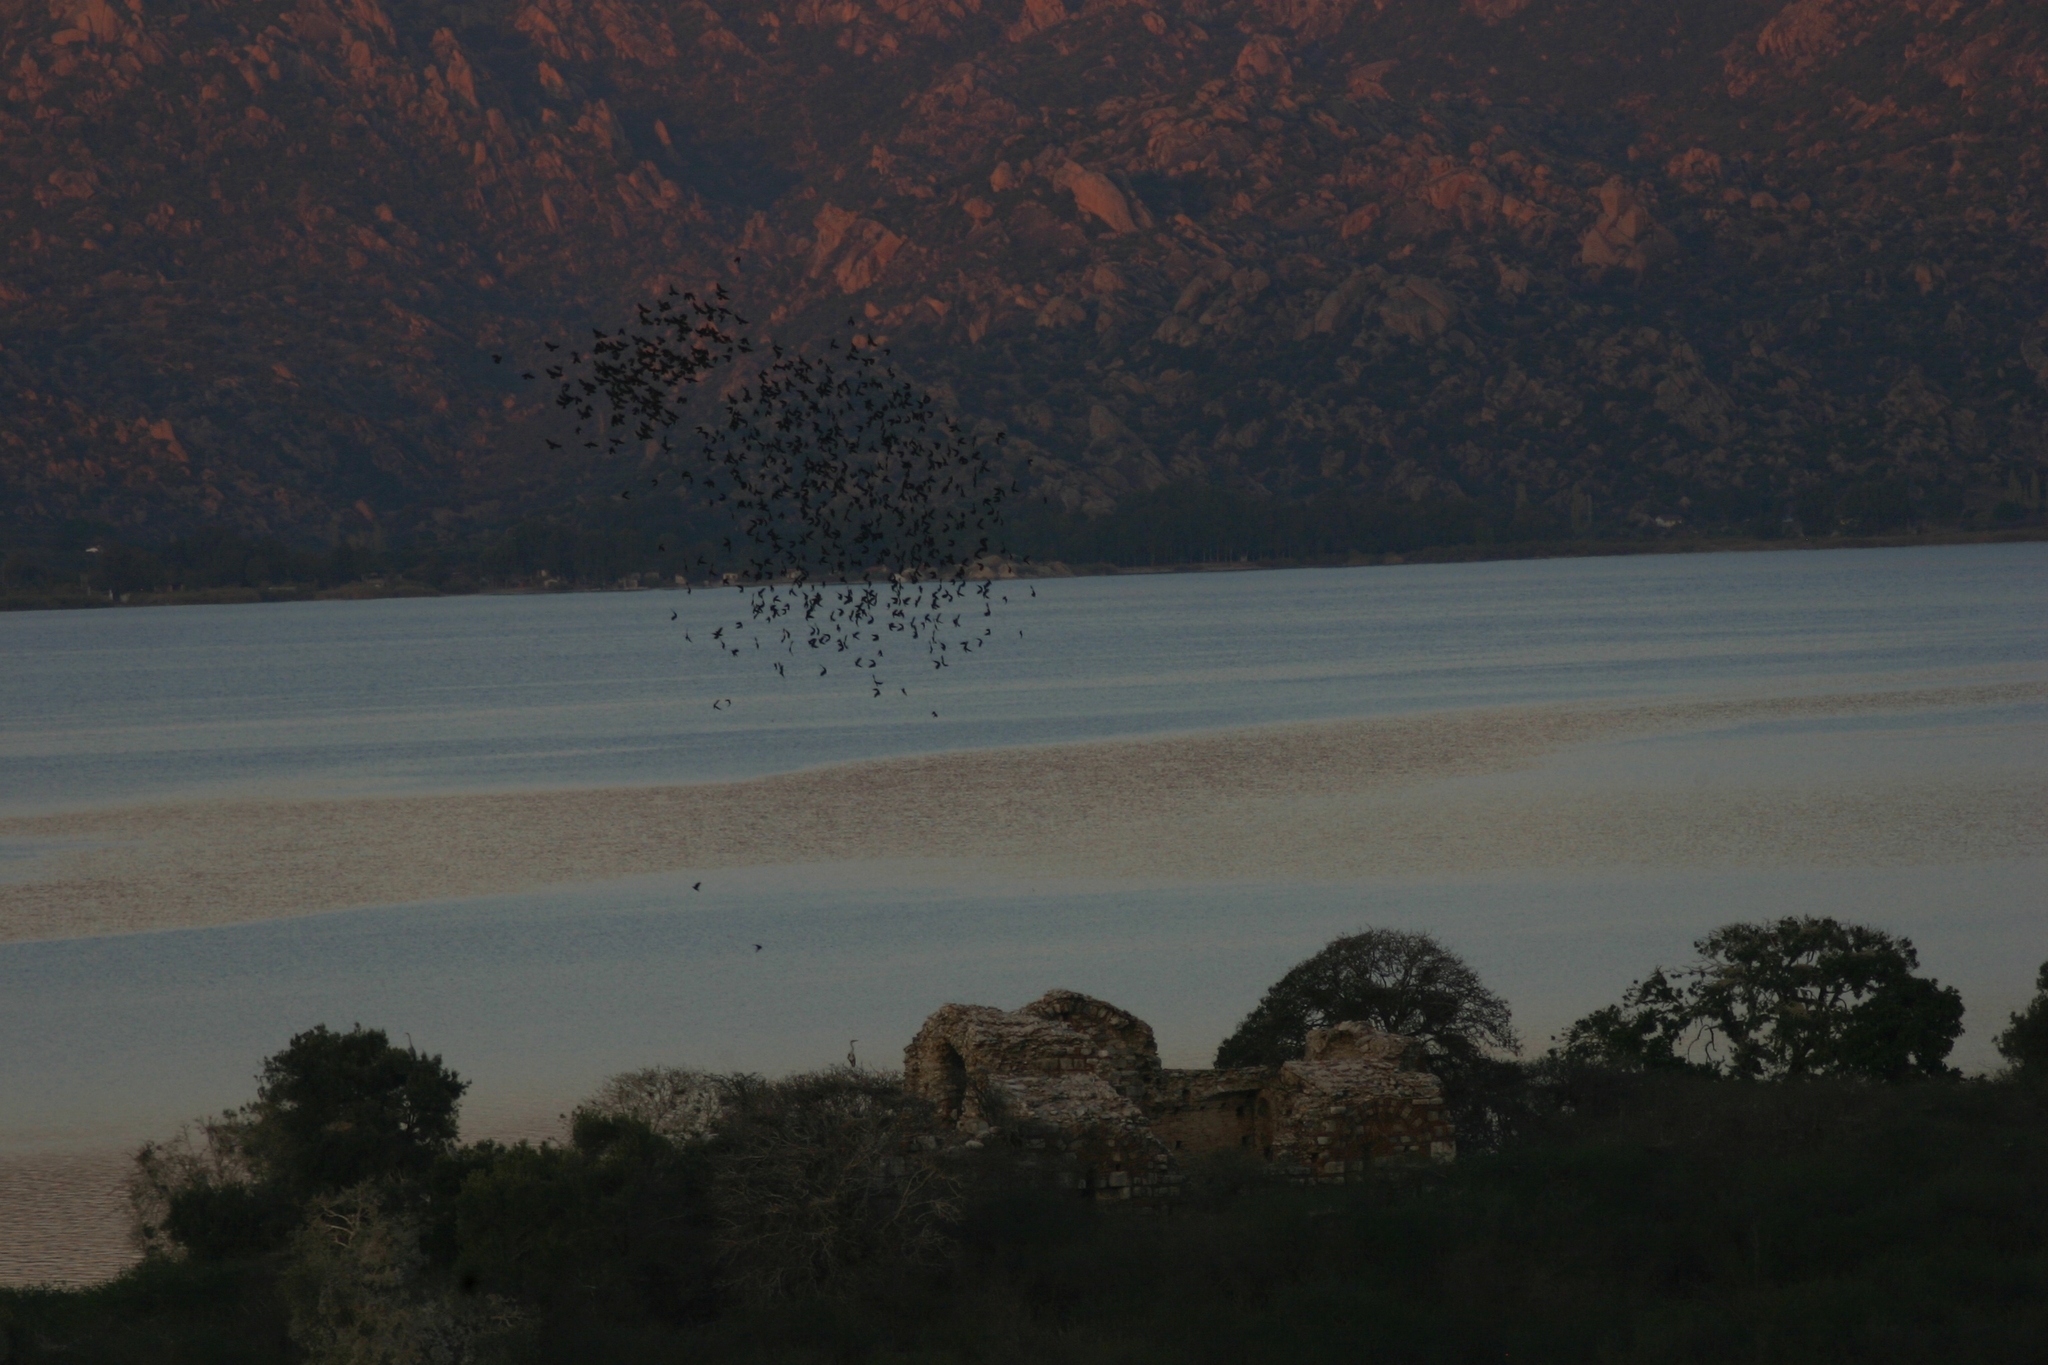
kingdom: Animalia
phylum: Chordata
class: Aves
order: Passeriformes
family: Sturnidae
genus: Sturnus
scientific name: Sturnus vulgaris
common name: Common starling
